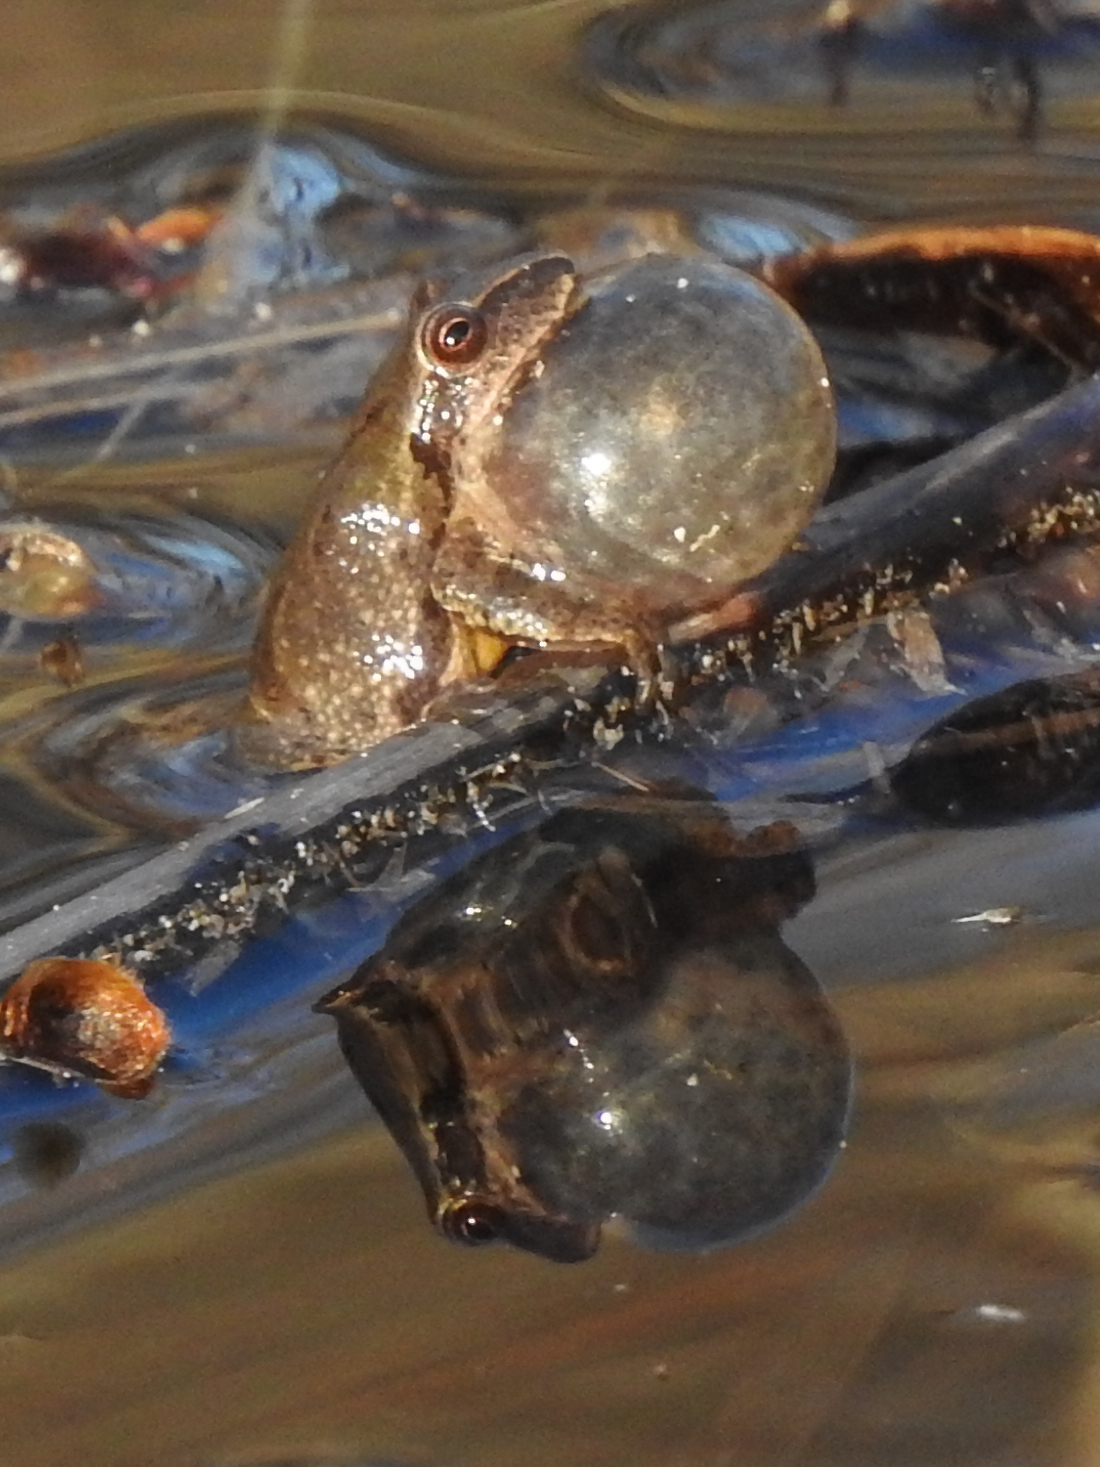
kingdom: Animalia
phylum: Chordata
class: Amphibia
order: Anura
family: Hylidae
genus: Pseudacris
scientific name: Pseudacris crucifer
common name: Spring peeper
